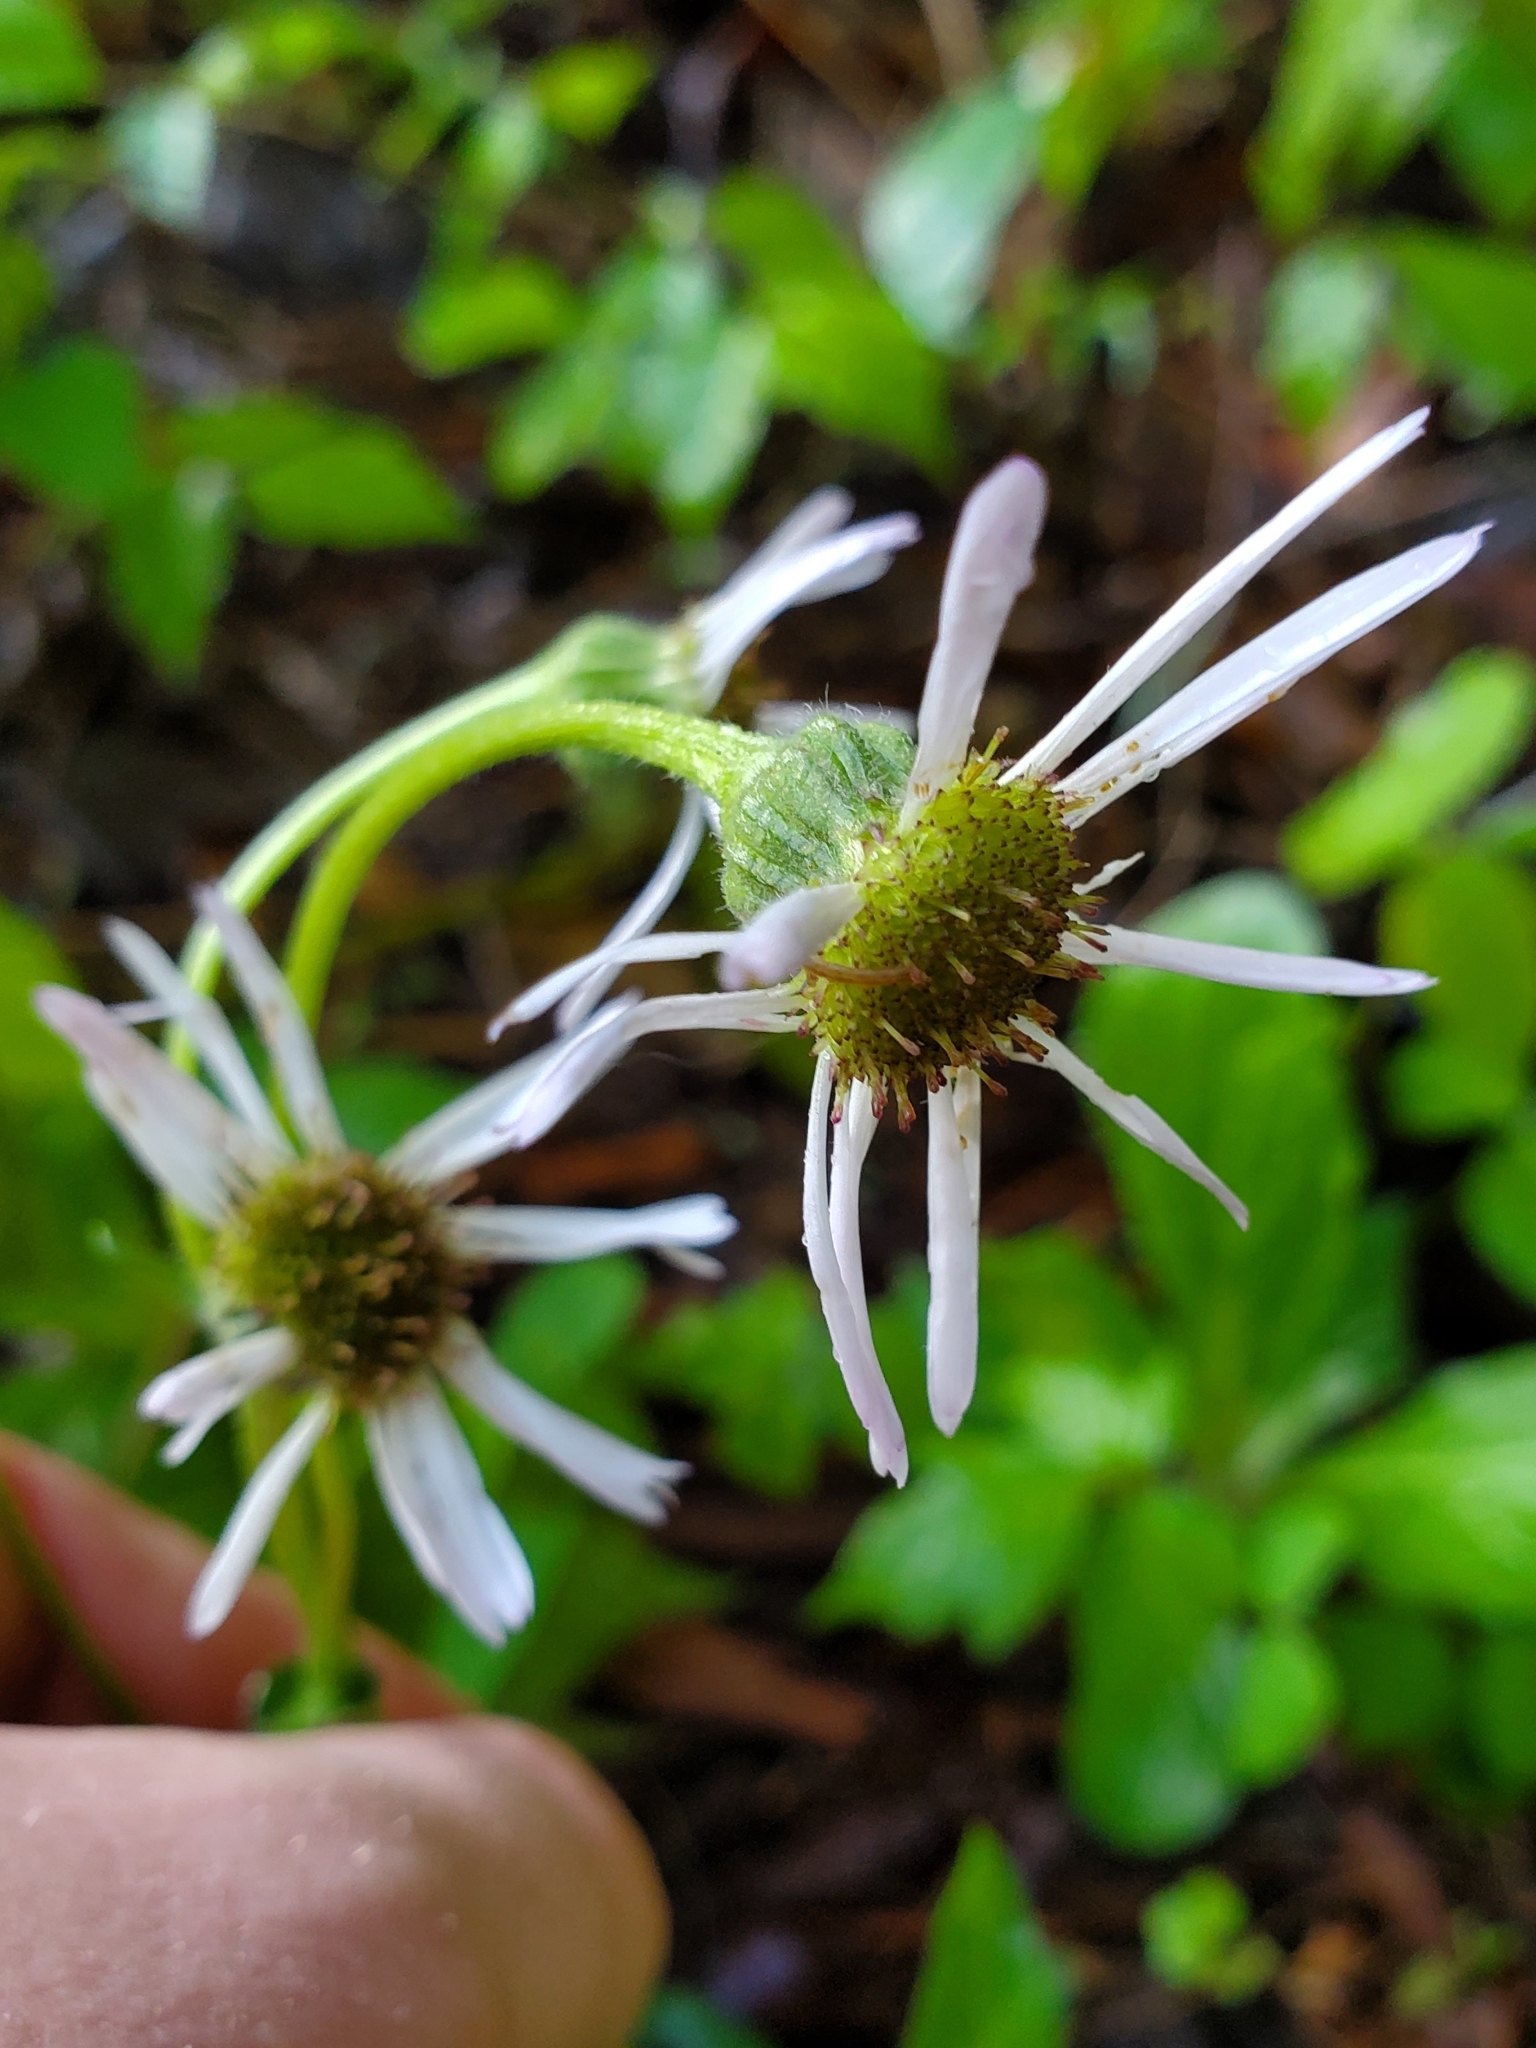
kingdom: Plantae
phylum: Tracheophyta
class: Magnoliopsida
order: Asterales
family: Asteraceae
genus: Erigeron
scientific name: Erigeron pulchellus
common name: Hairy fleabane
